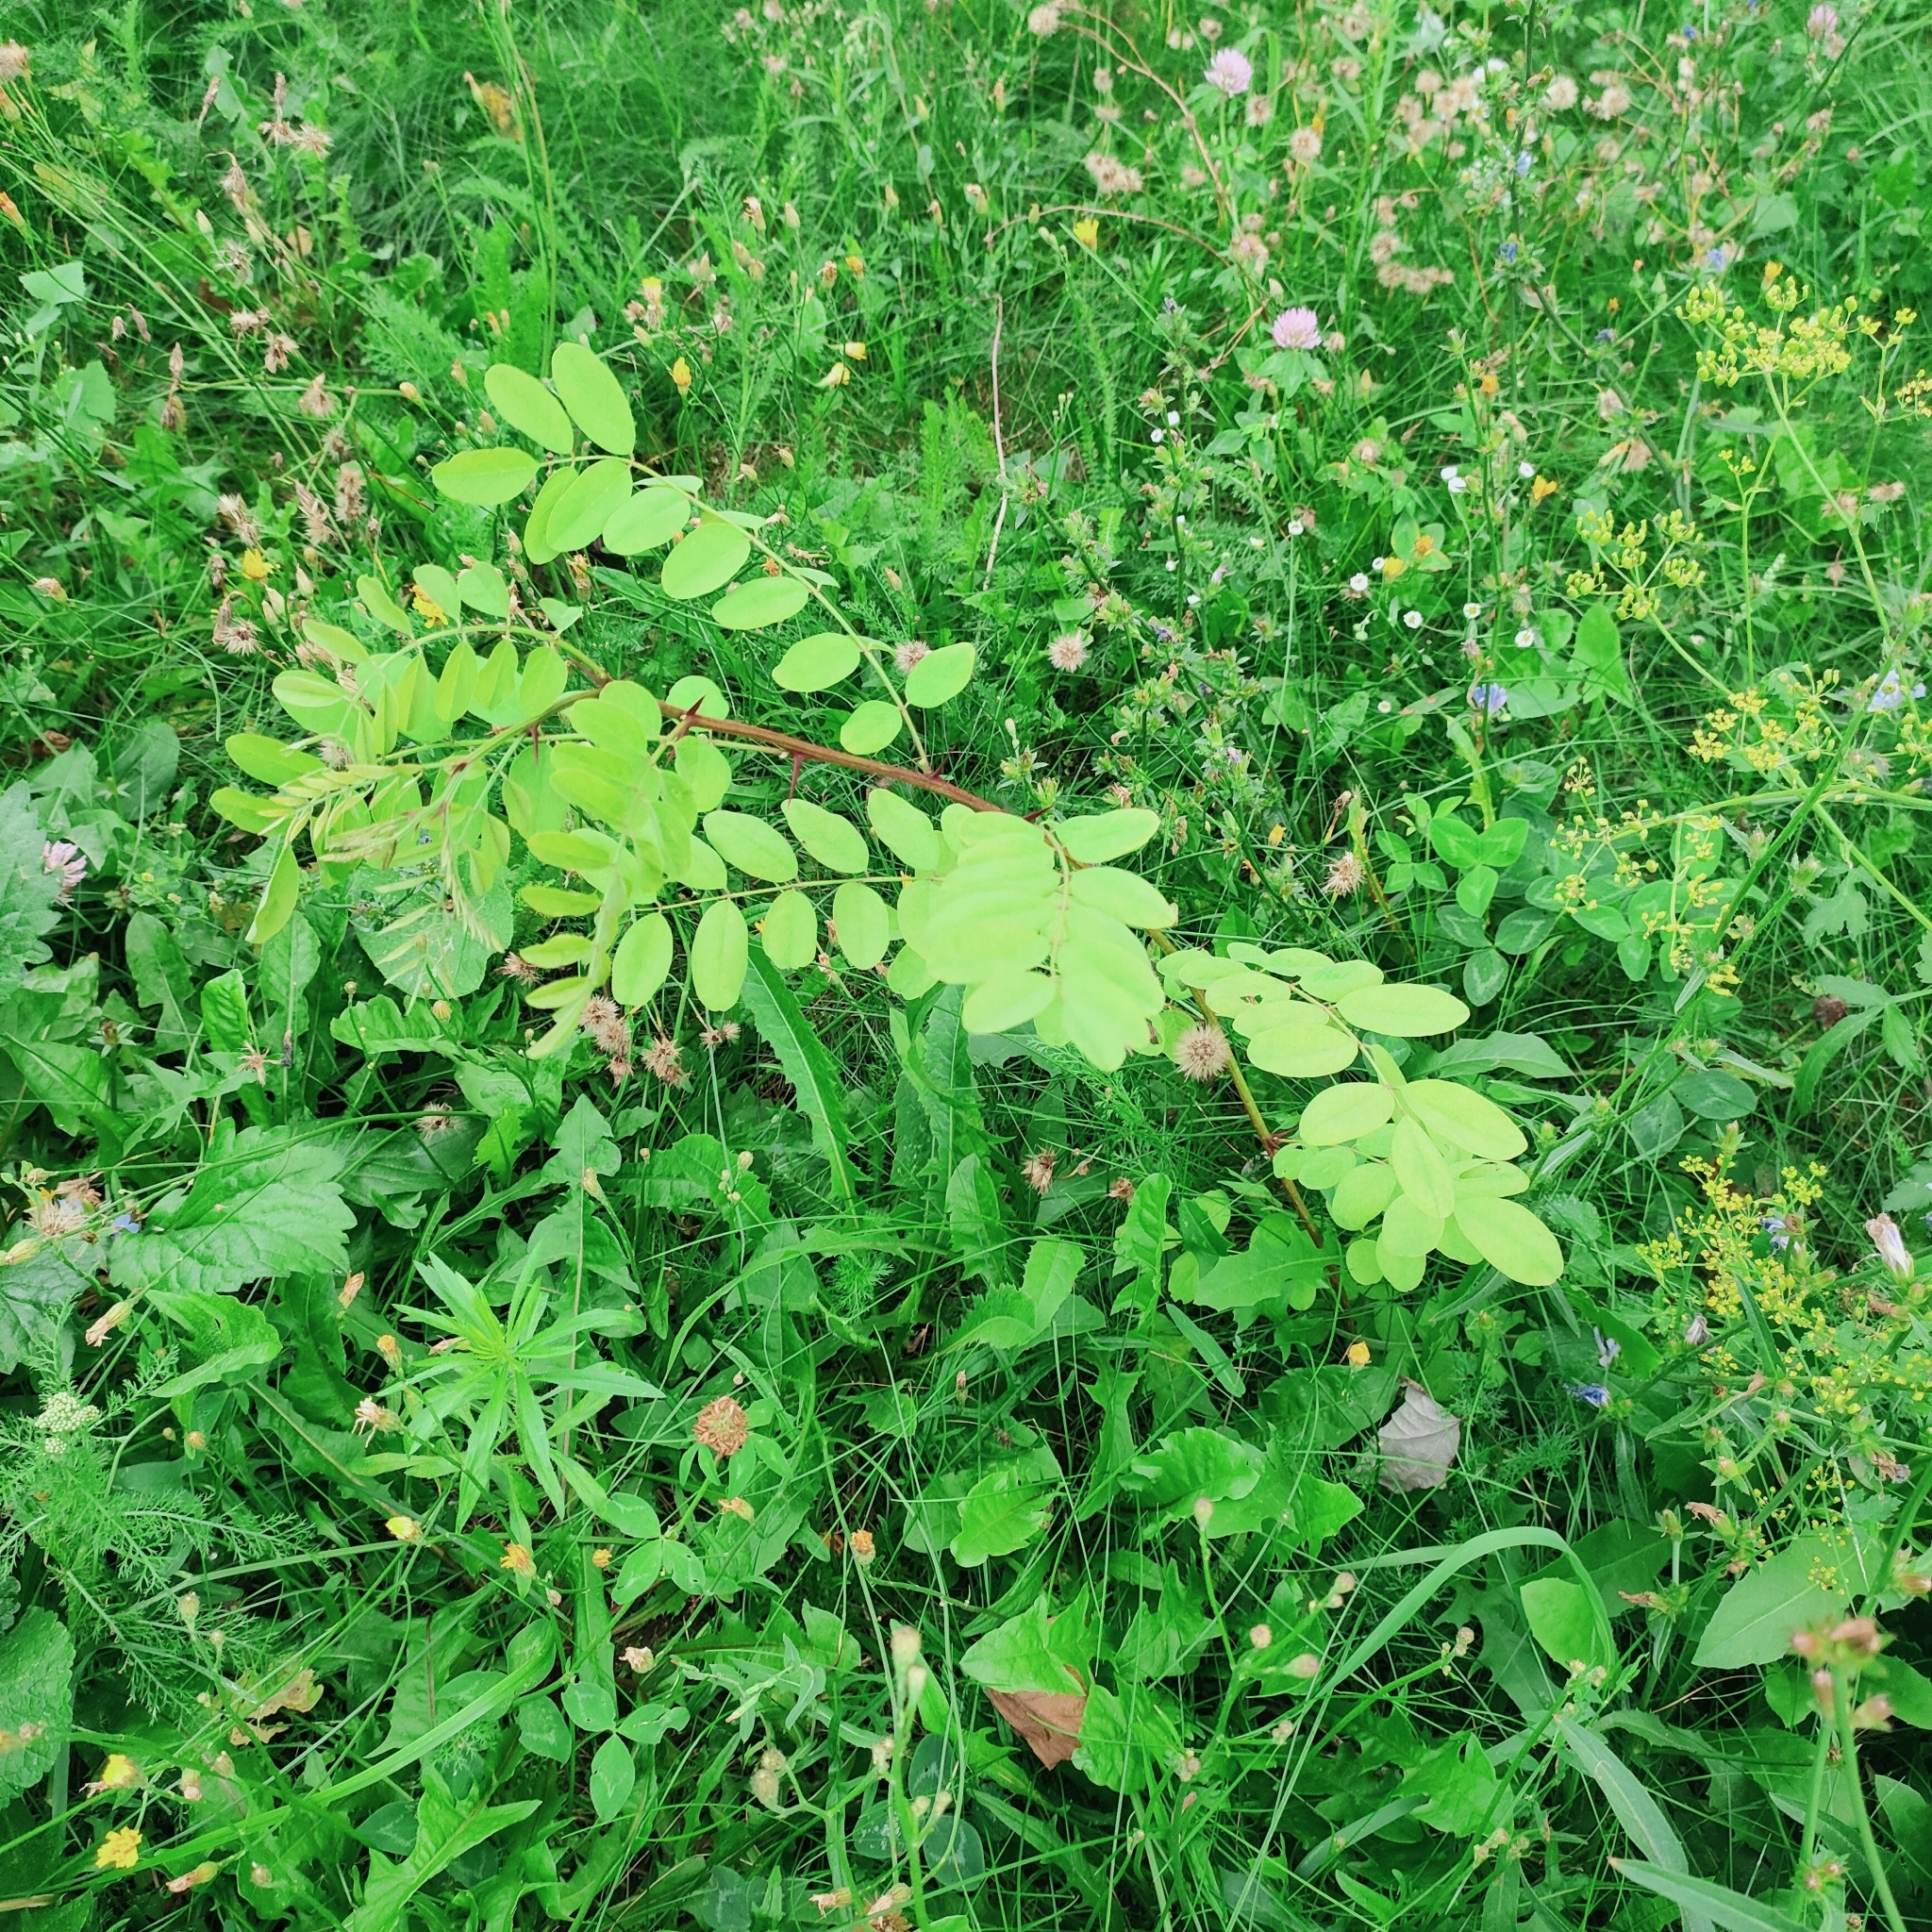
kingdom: Plantae
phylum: Tracheophyta
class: Magnoliopsida
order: Fabales
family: Fabaceae
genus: Robinia
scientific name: Robinia pseudoacacia
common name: Black locust
